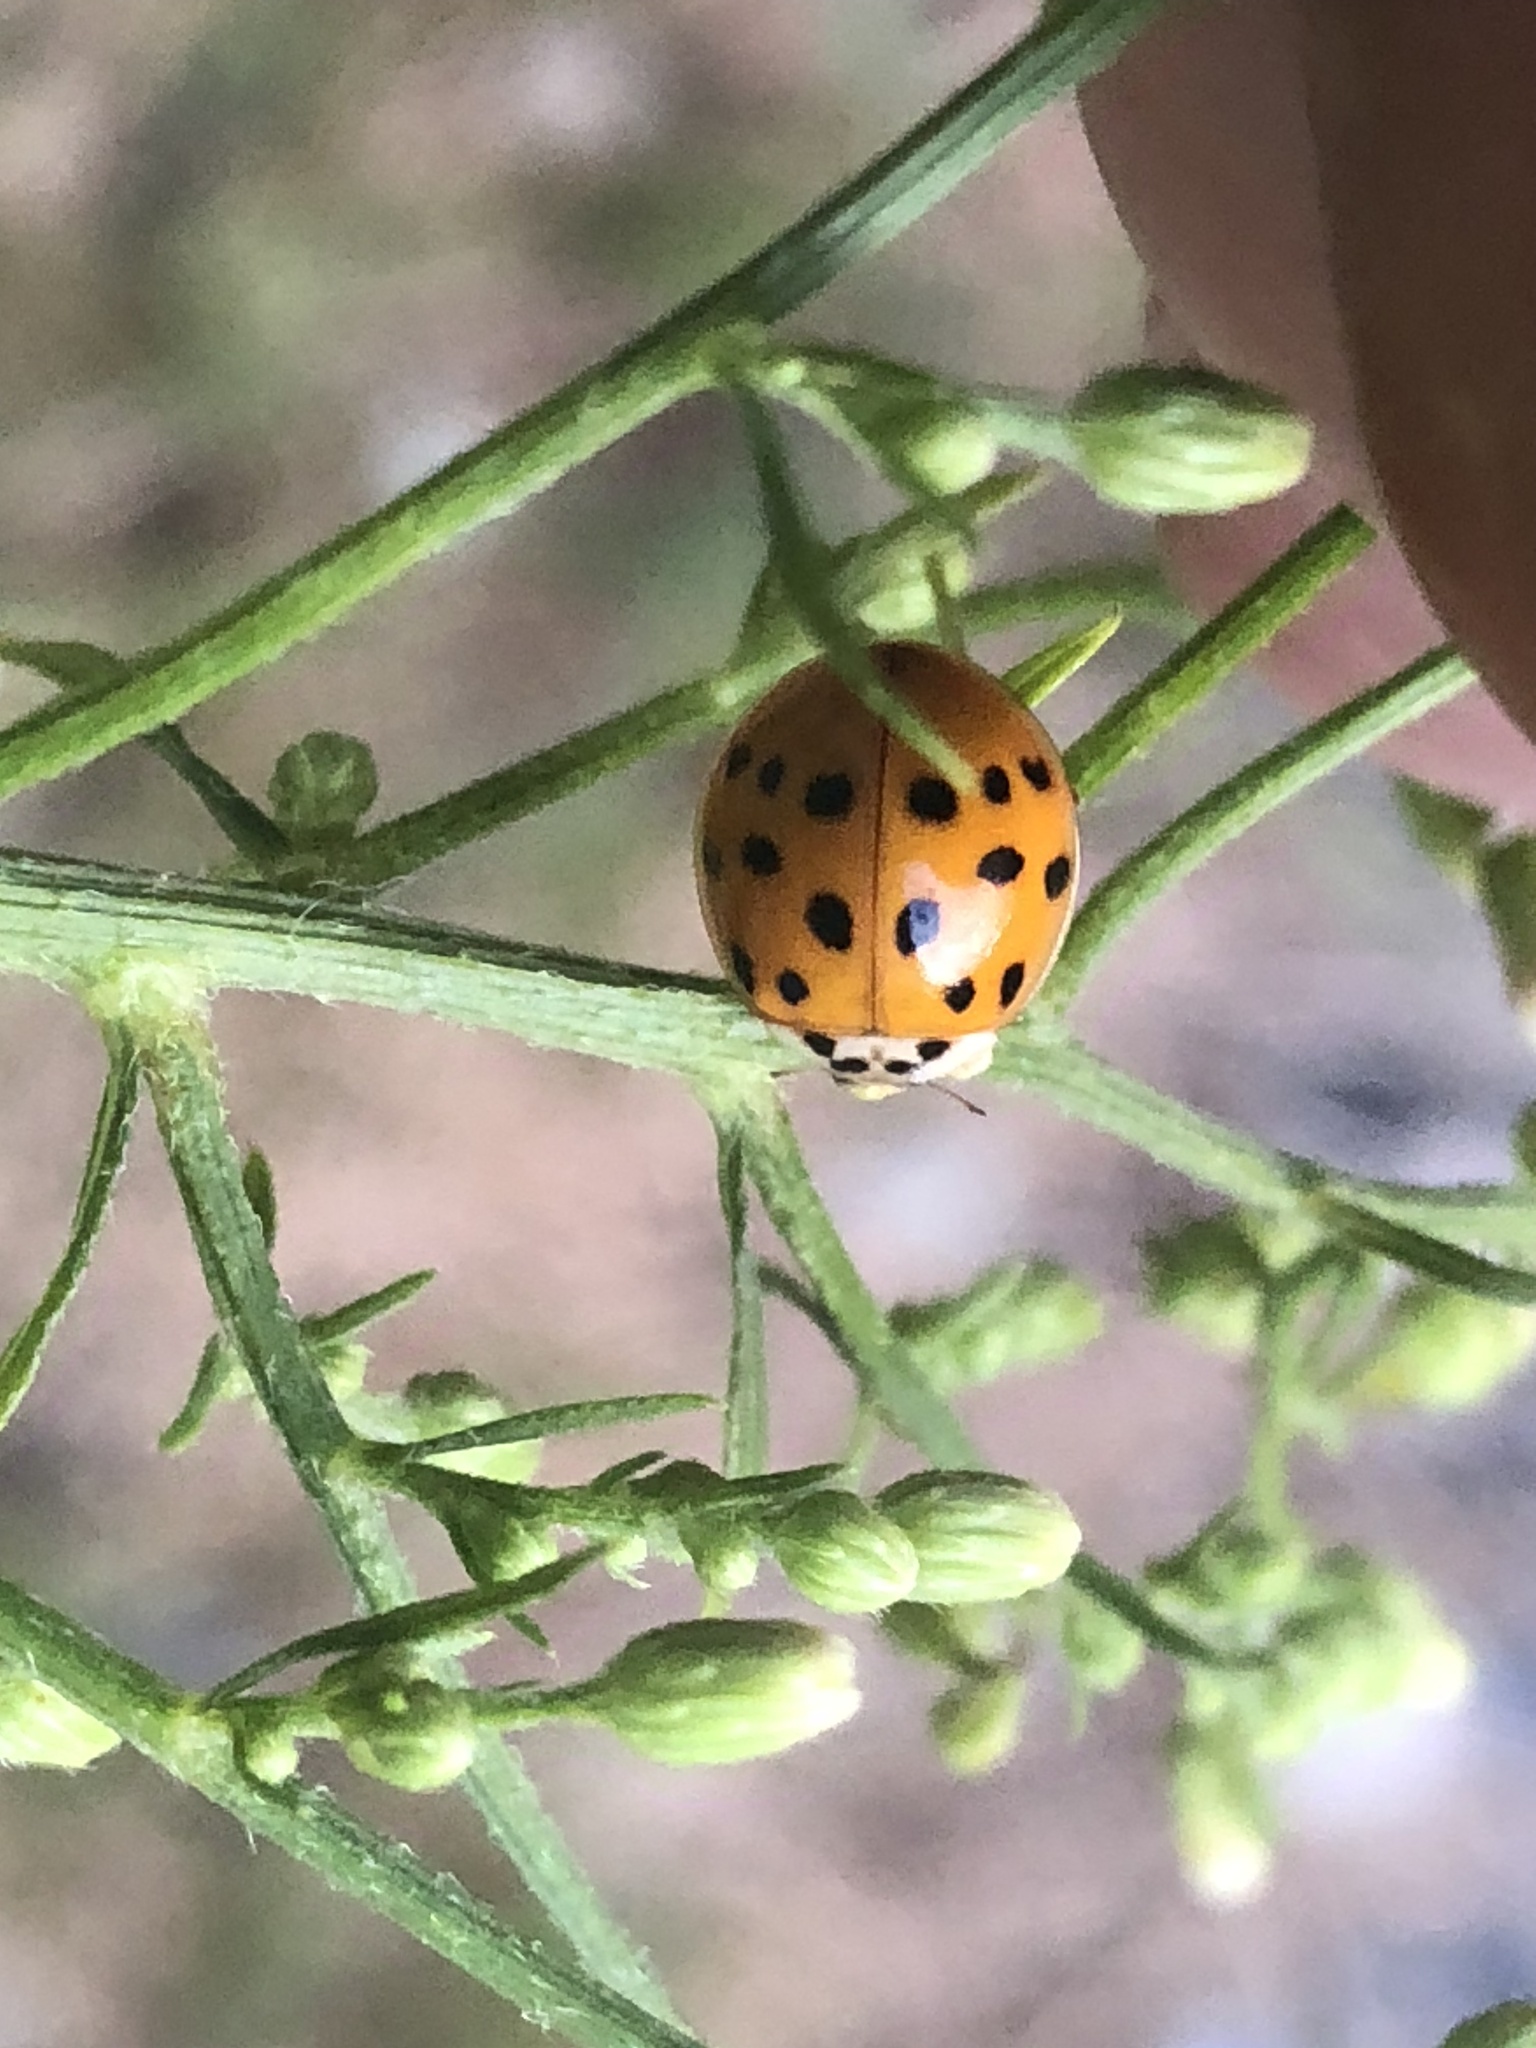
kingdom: Animalia
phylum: Arthropoda
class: Insecta
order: Coleoptera
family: Coccinellidae
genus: Harmonia
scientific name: Harmonia axyridis
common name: Harlequin ladybird
